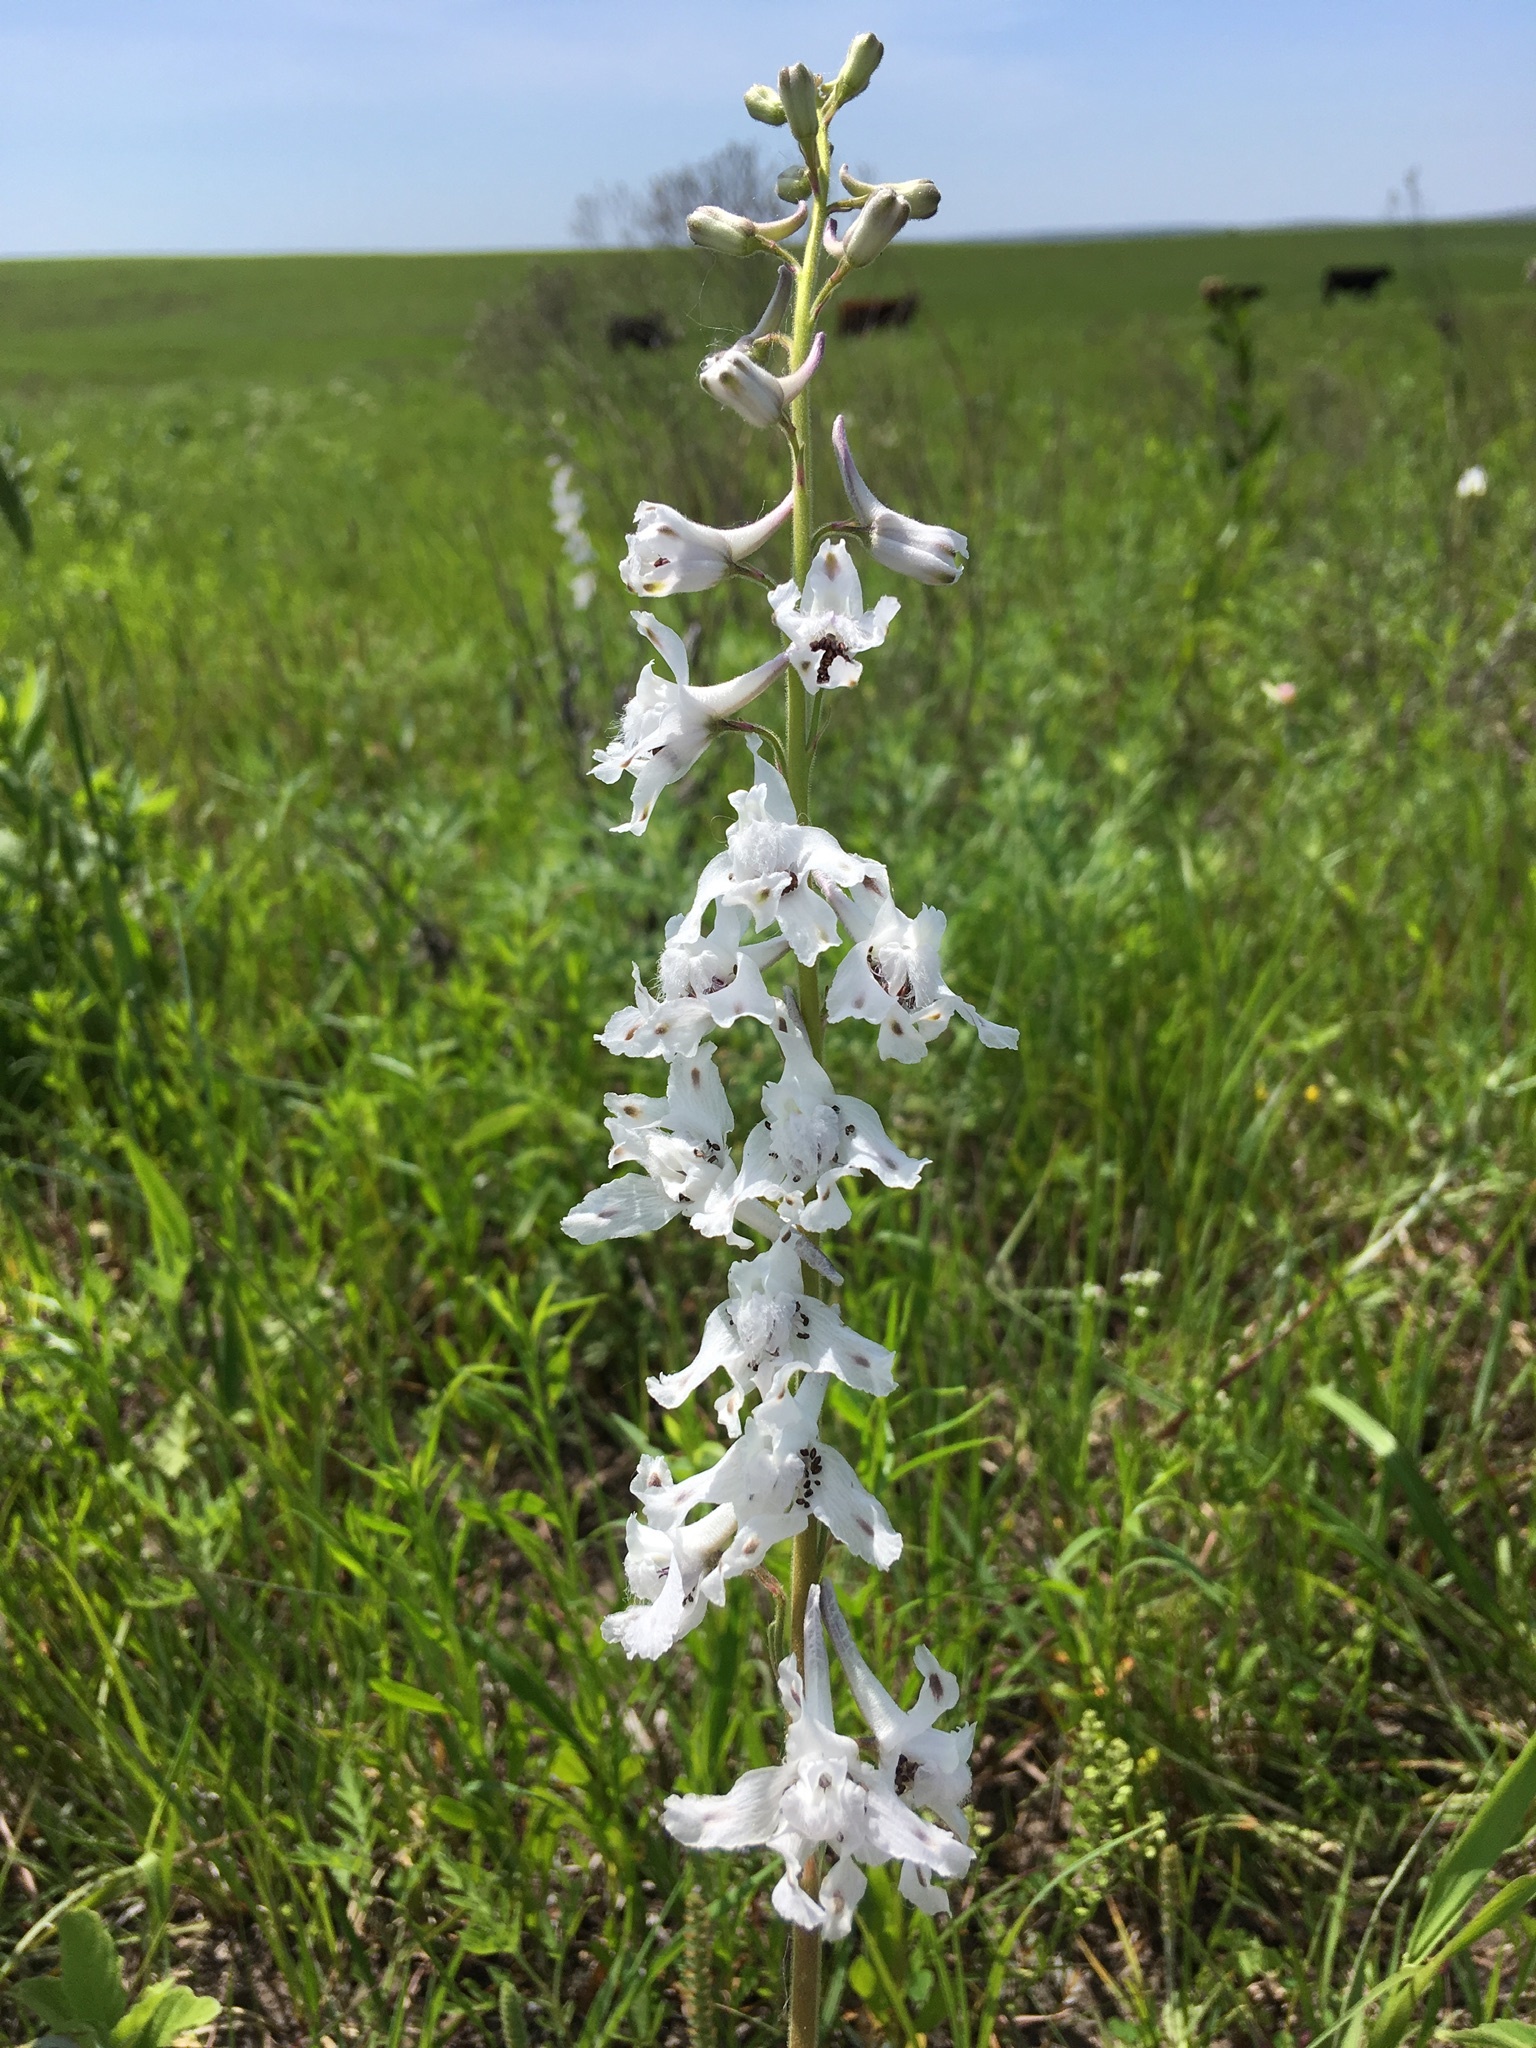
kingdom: Plantae
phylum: Tracheophyta
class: Magnoliopsida
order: Ranunculales
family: Ranunculaceae
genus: Delphinium
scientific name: Delphinium carolinianum
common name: Carolina larkspur
